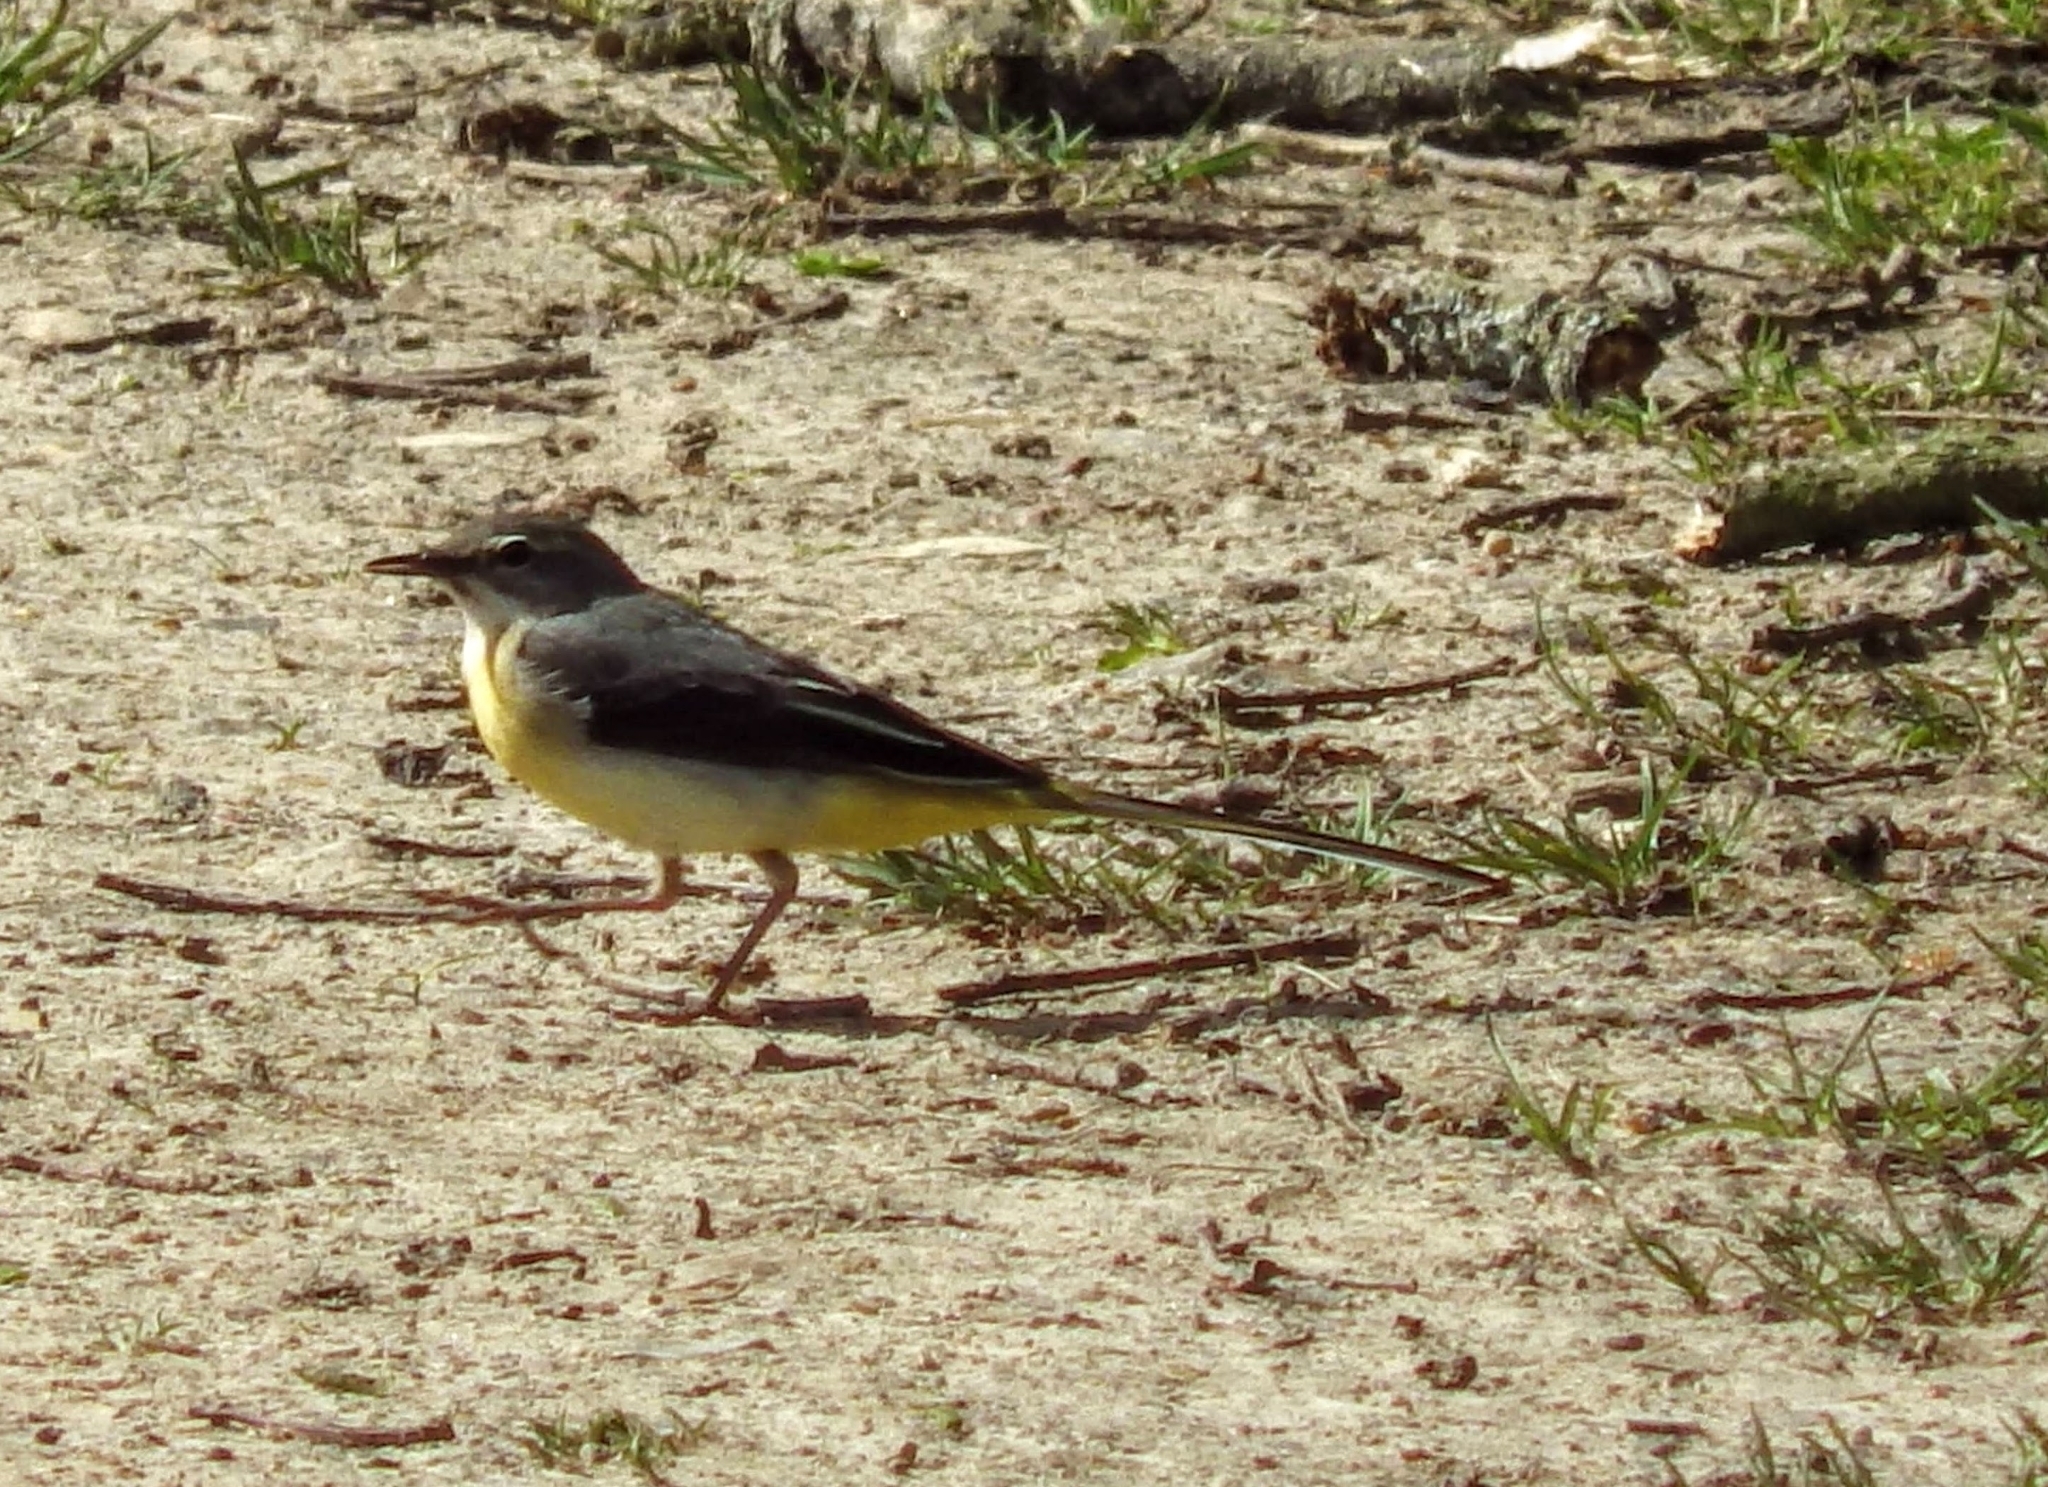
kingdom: Animalia
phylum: Chordata
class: Aves
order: Passeriformes
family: Motacillidae
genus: Motacilla
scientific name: Motacilla cinerea
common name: Grey wagtail
